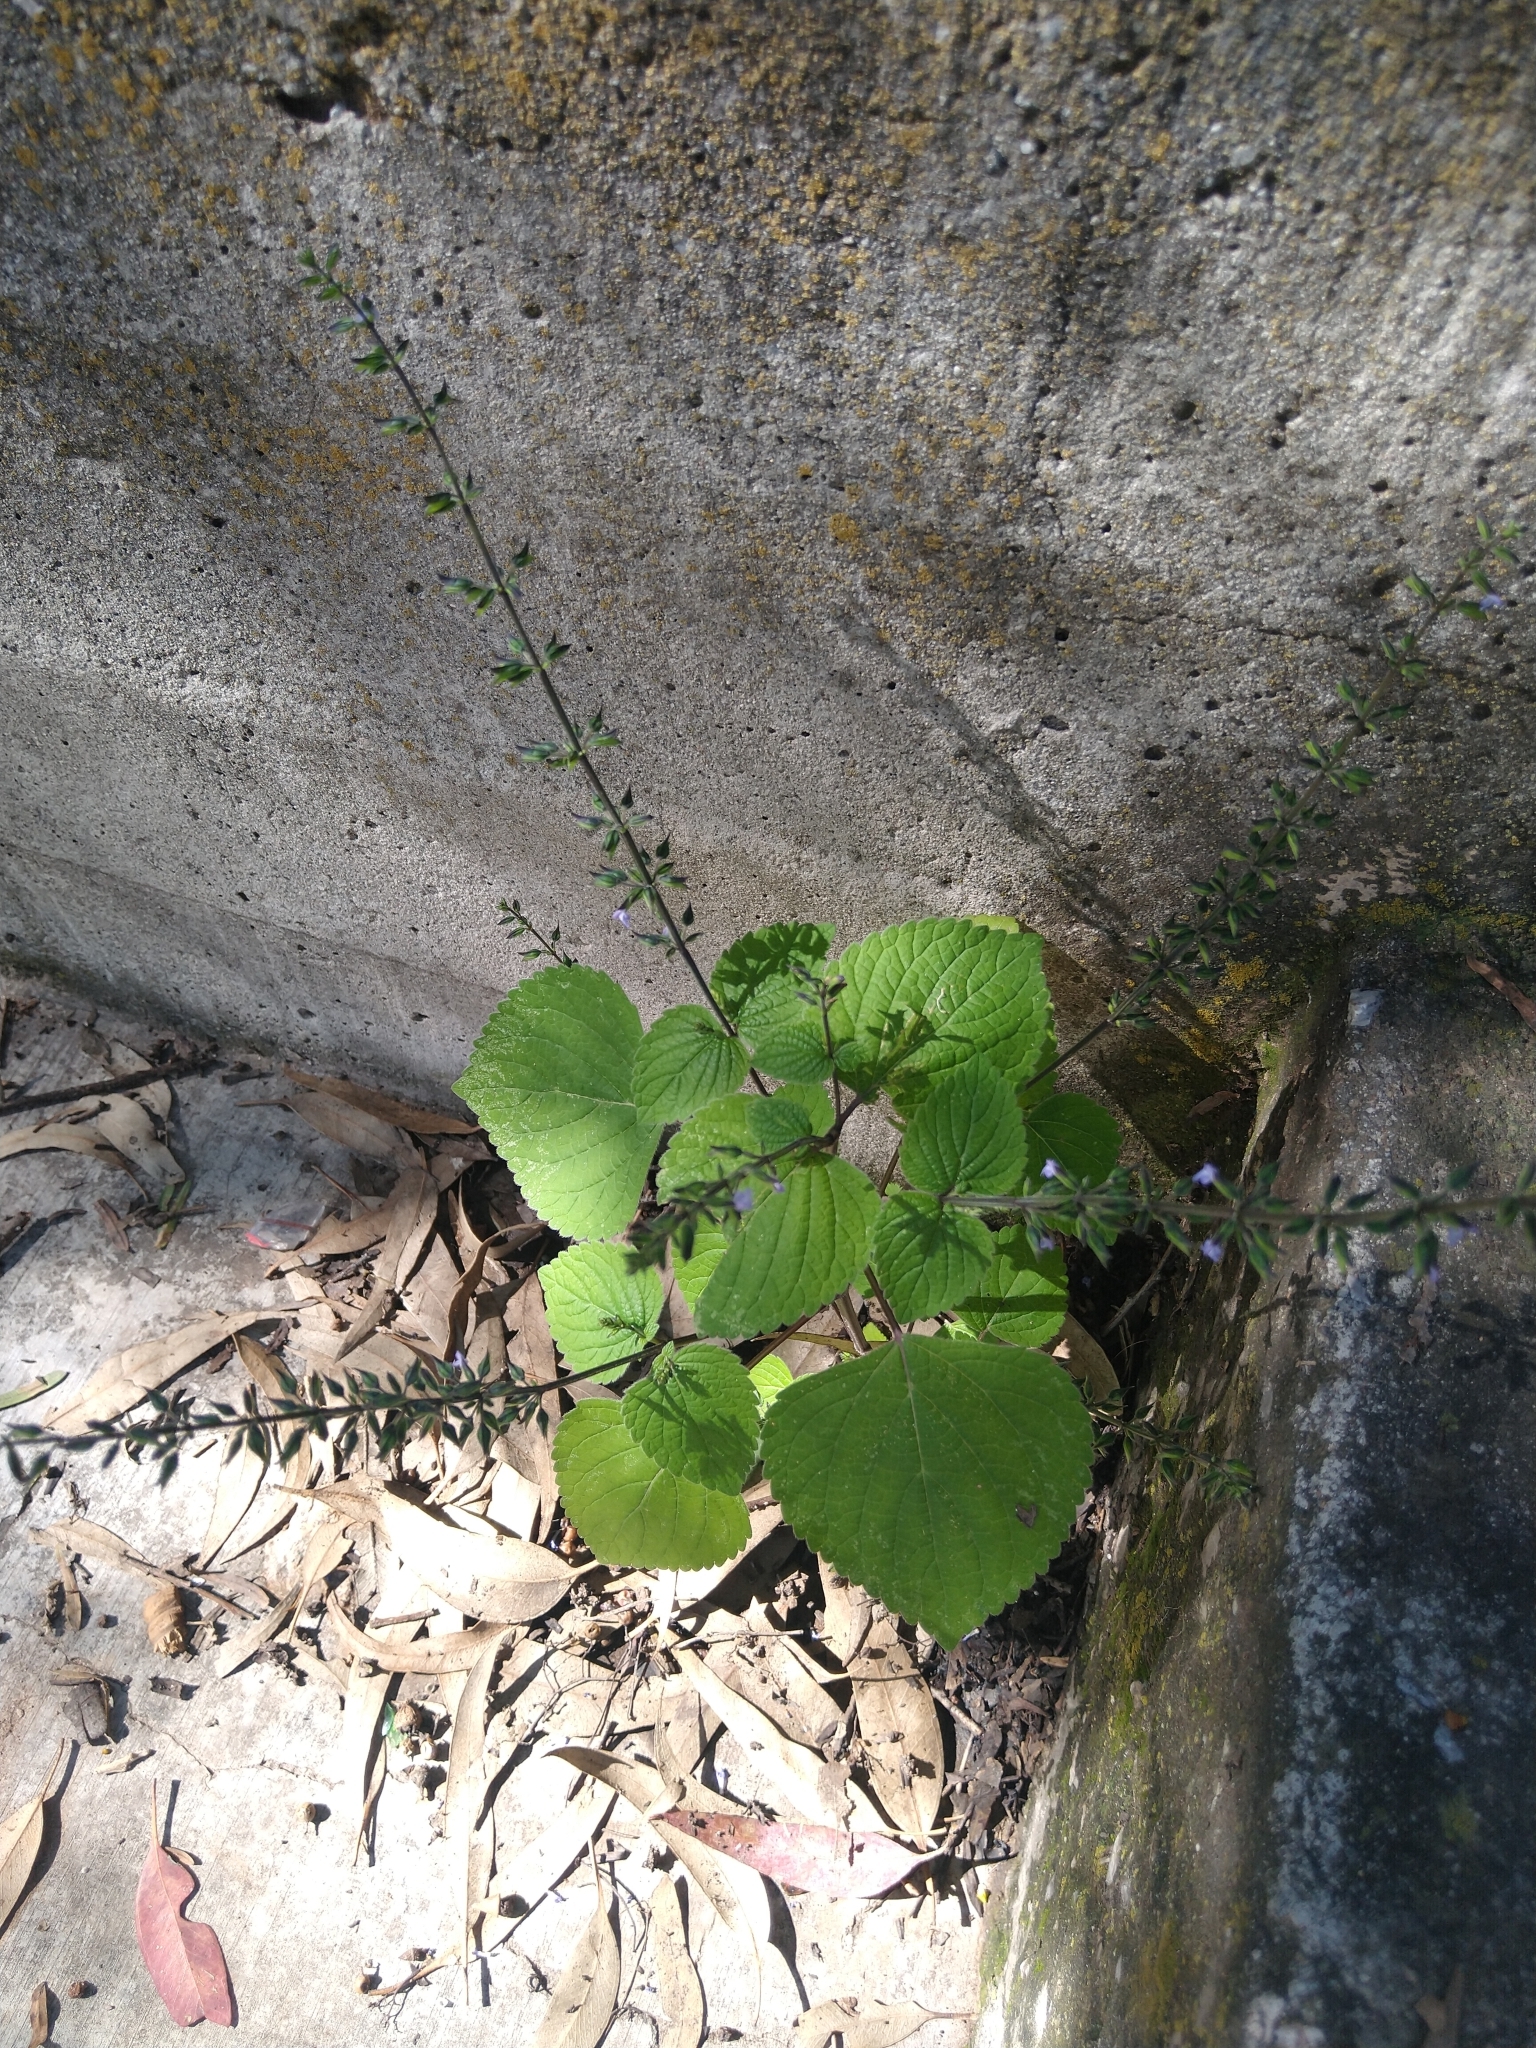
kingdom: Plantae
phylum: Tracheophyta
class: Magnoliopsida
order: Lamiales
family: Lamiaceae
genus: Salvia
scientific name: Salvia tiliifolia
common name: Lindenleaf sage
